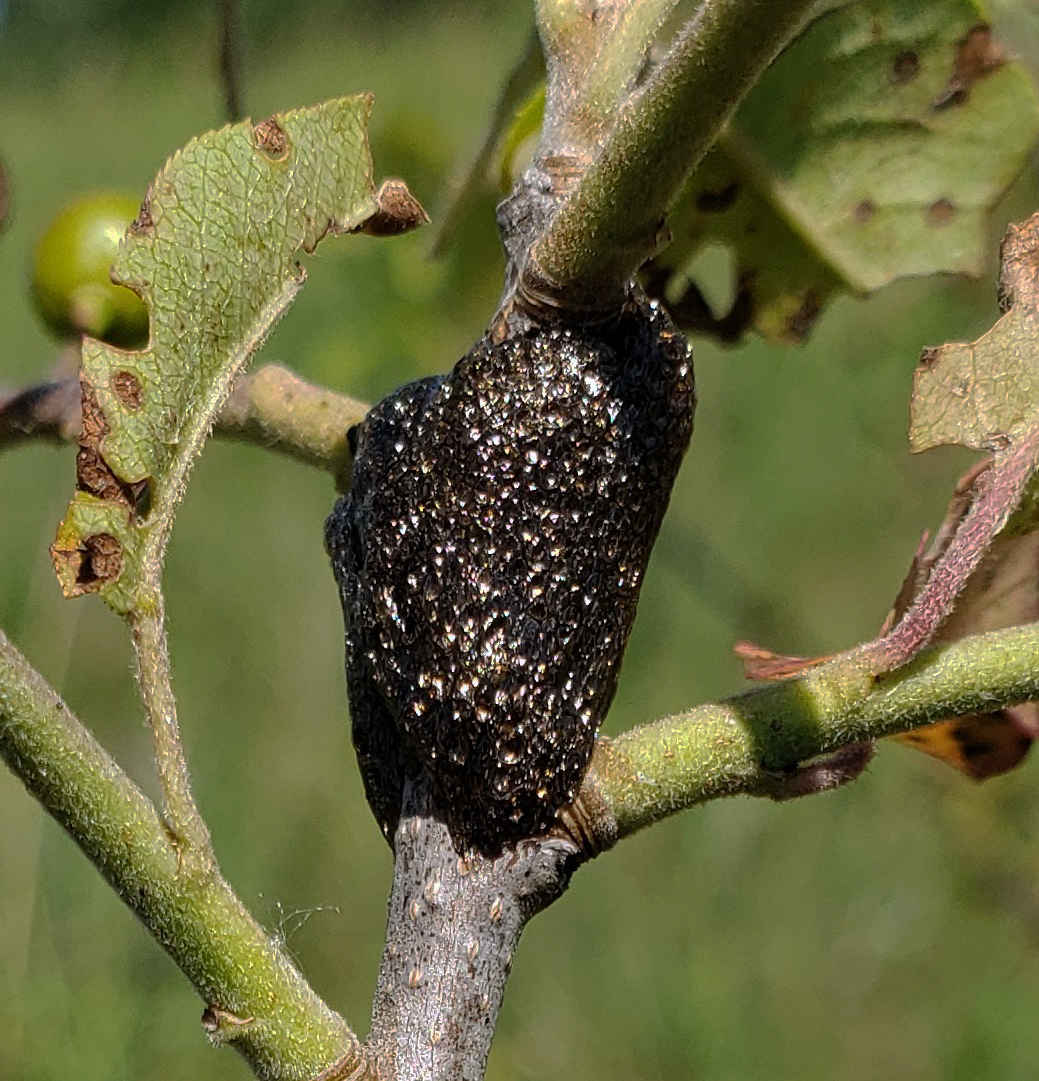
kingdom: Animalia
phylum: Arthropoda
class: Insecta
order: Lepidoptera
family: Lasiocampidae
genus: Malacosoma
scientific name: Malacosoma americana
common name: Eastern tent caterpillar moth
